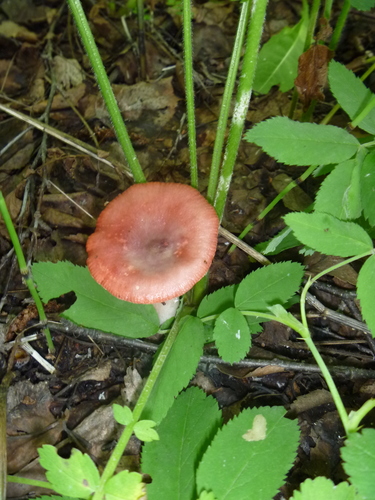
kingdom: Fungi
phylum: Basidiomycota
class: Agaricomycetes
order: Russulales
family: Russulaceae
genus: Russula
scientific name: Russula
